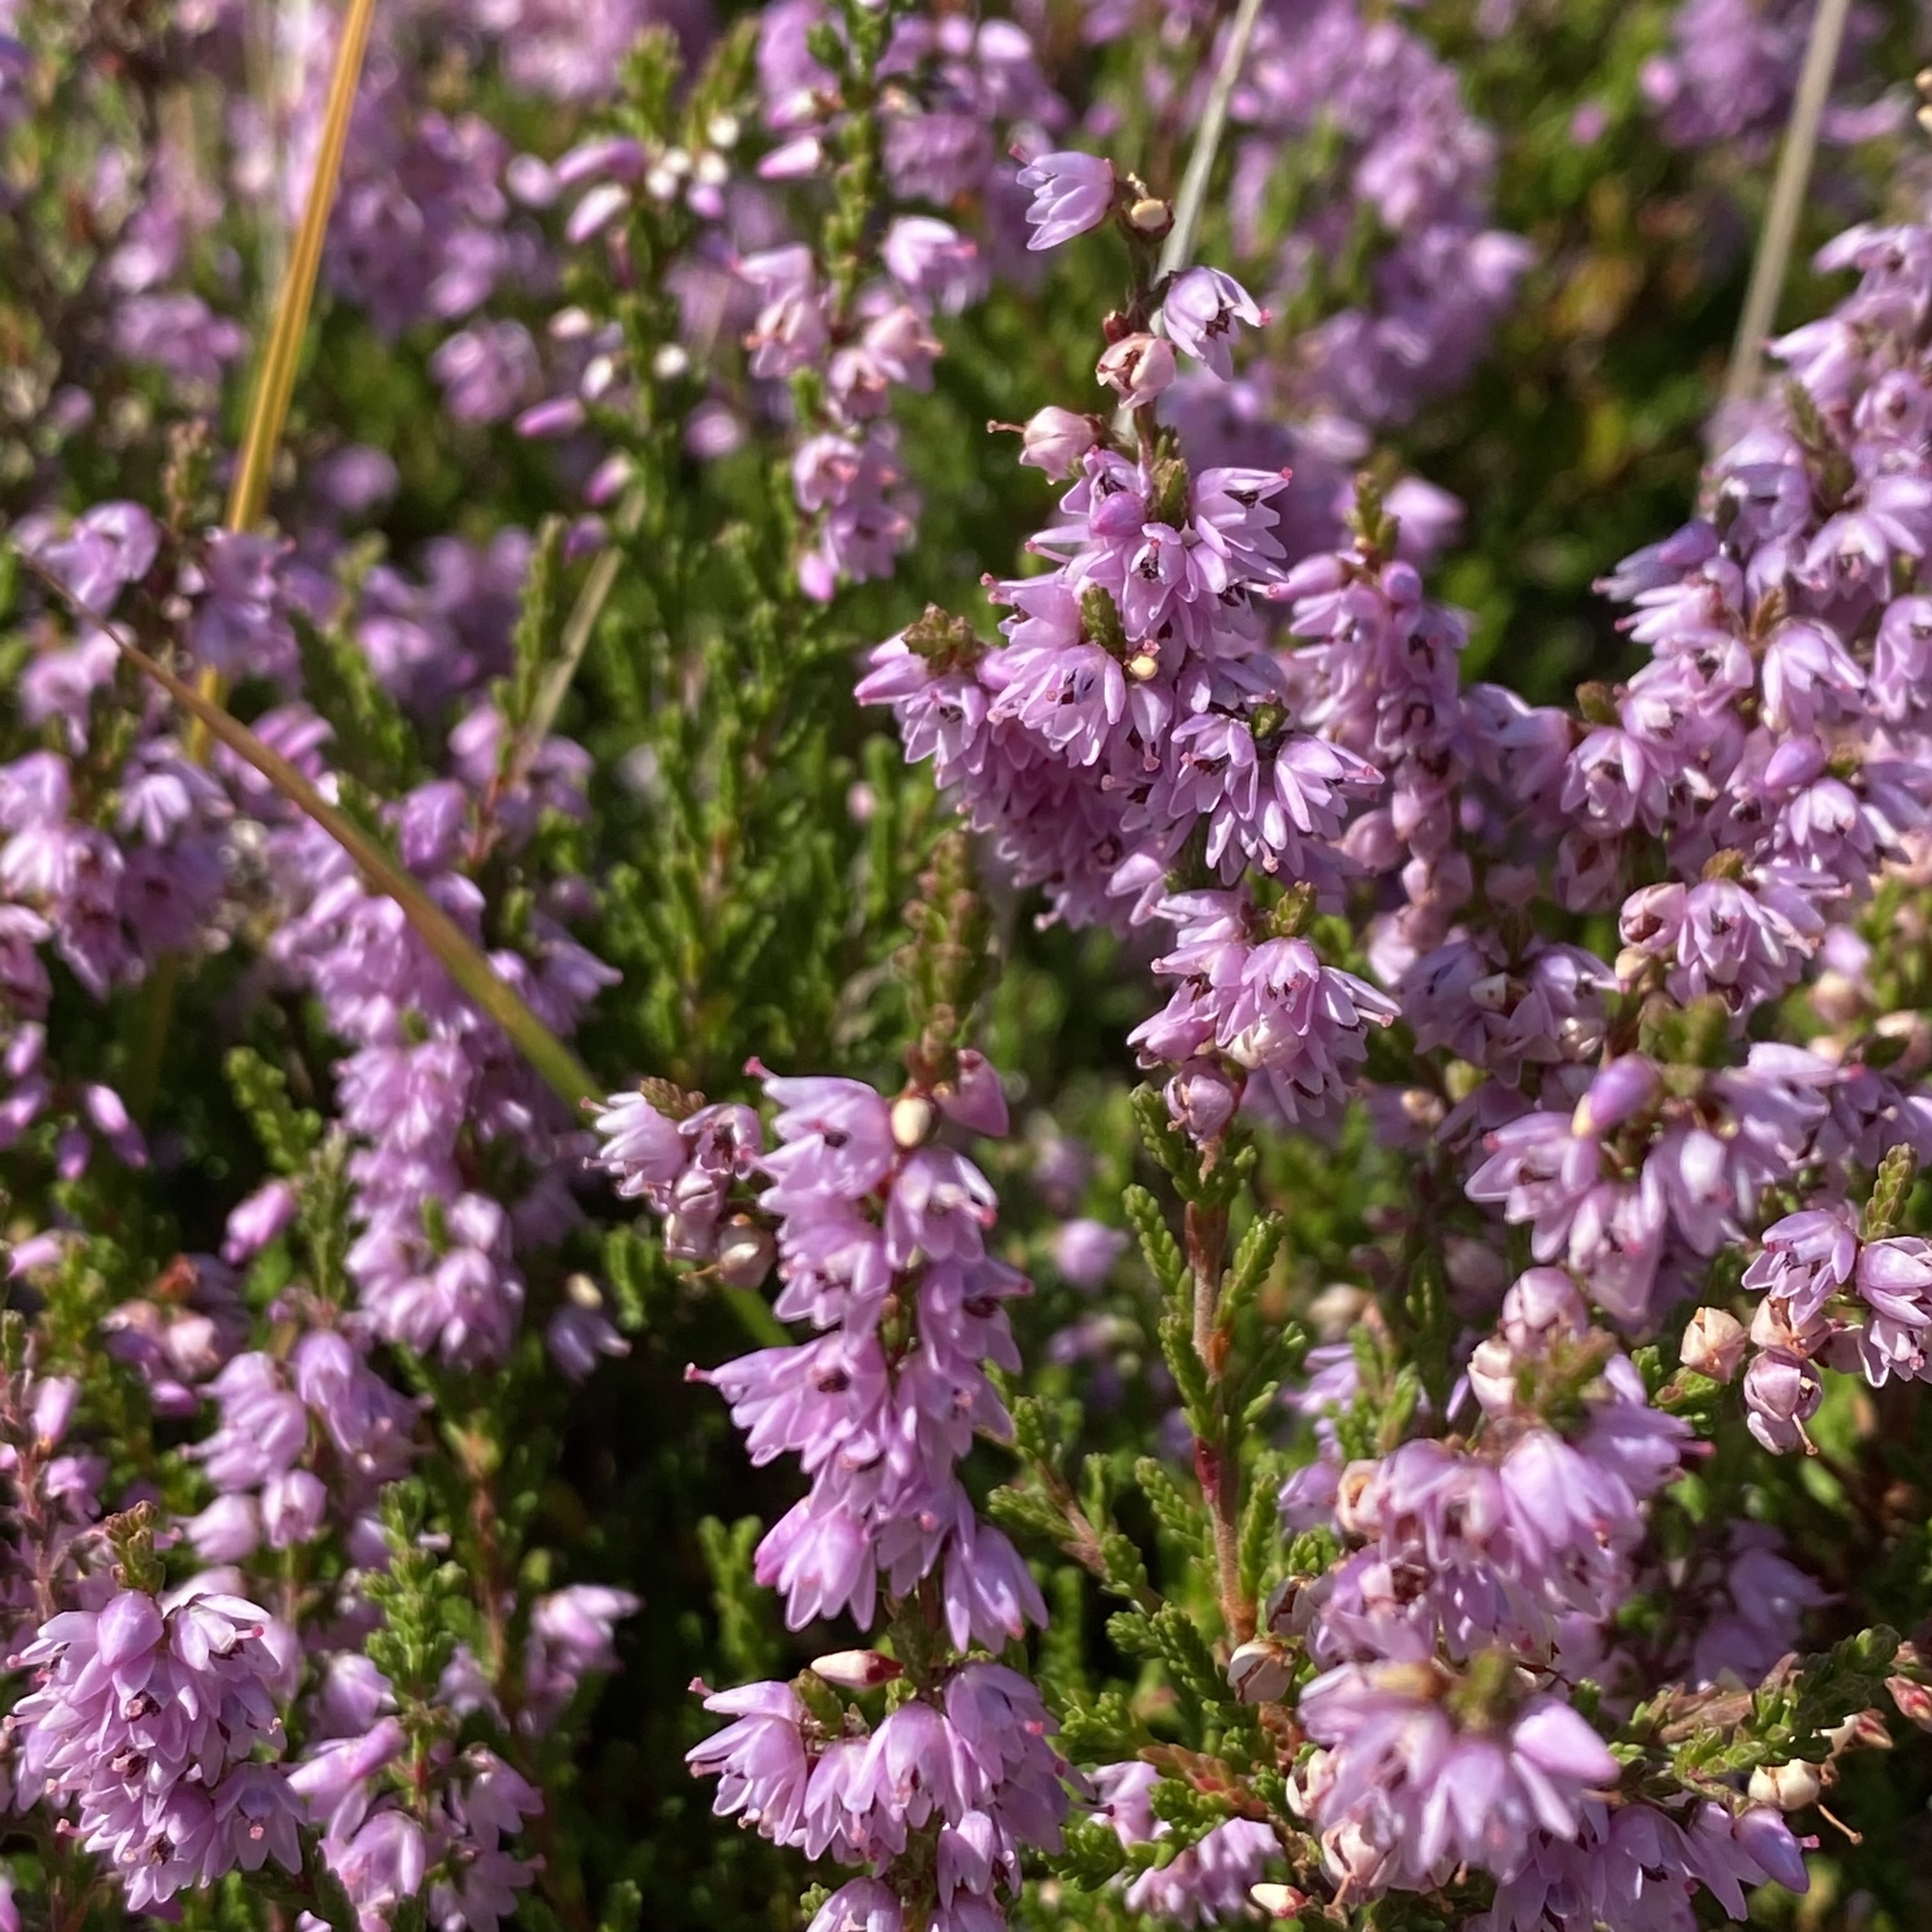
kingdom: Plantae
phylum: Tracheophyta
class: Magnoliopsida
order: Ericales
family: Ericaceae
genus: Calluna
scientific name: Calluna vulgaris
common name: Heather
